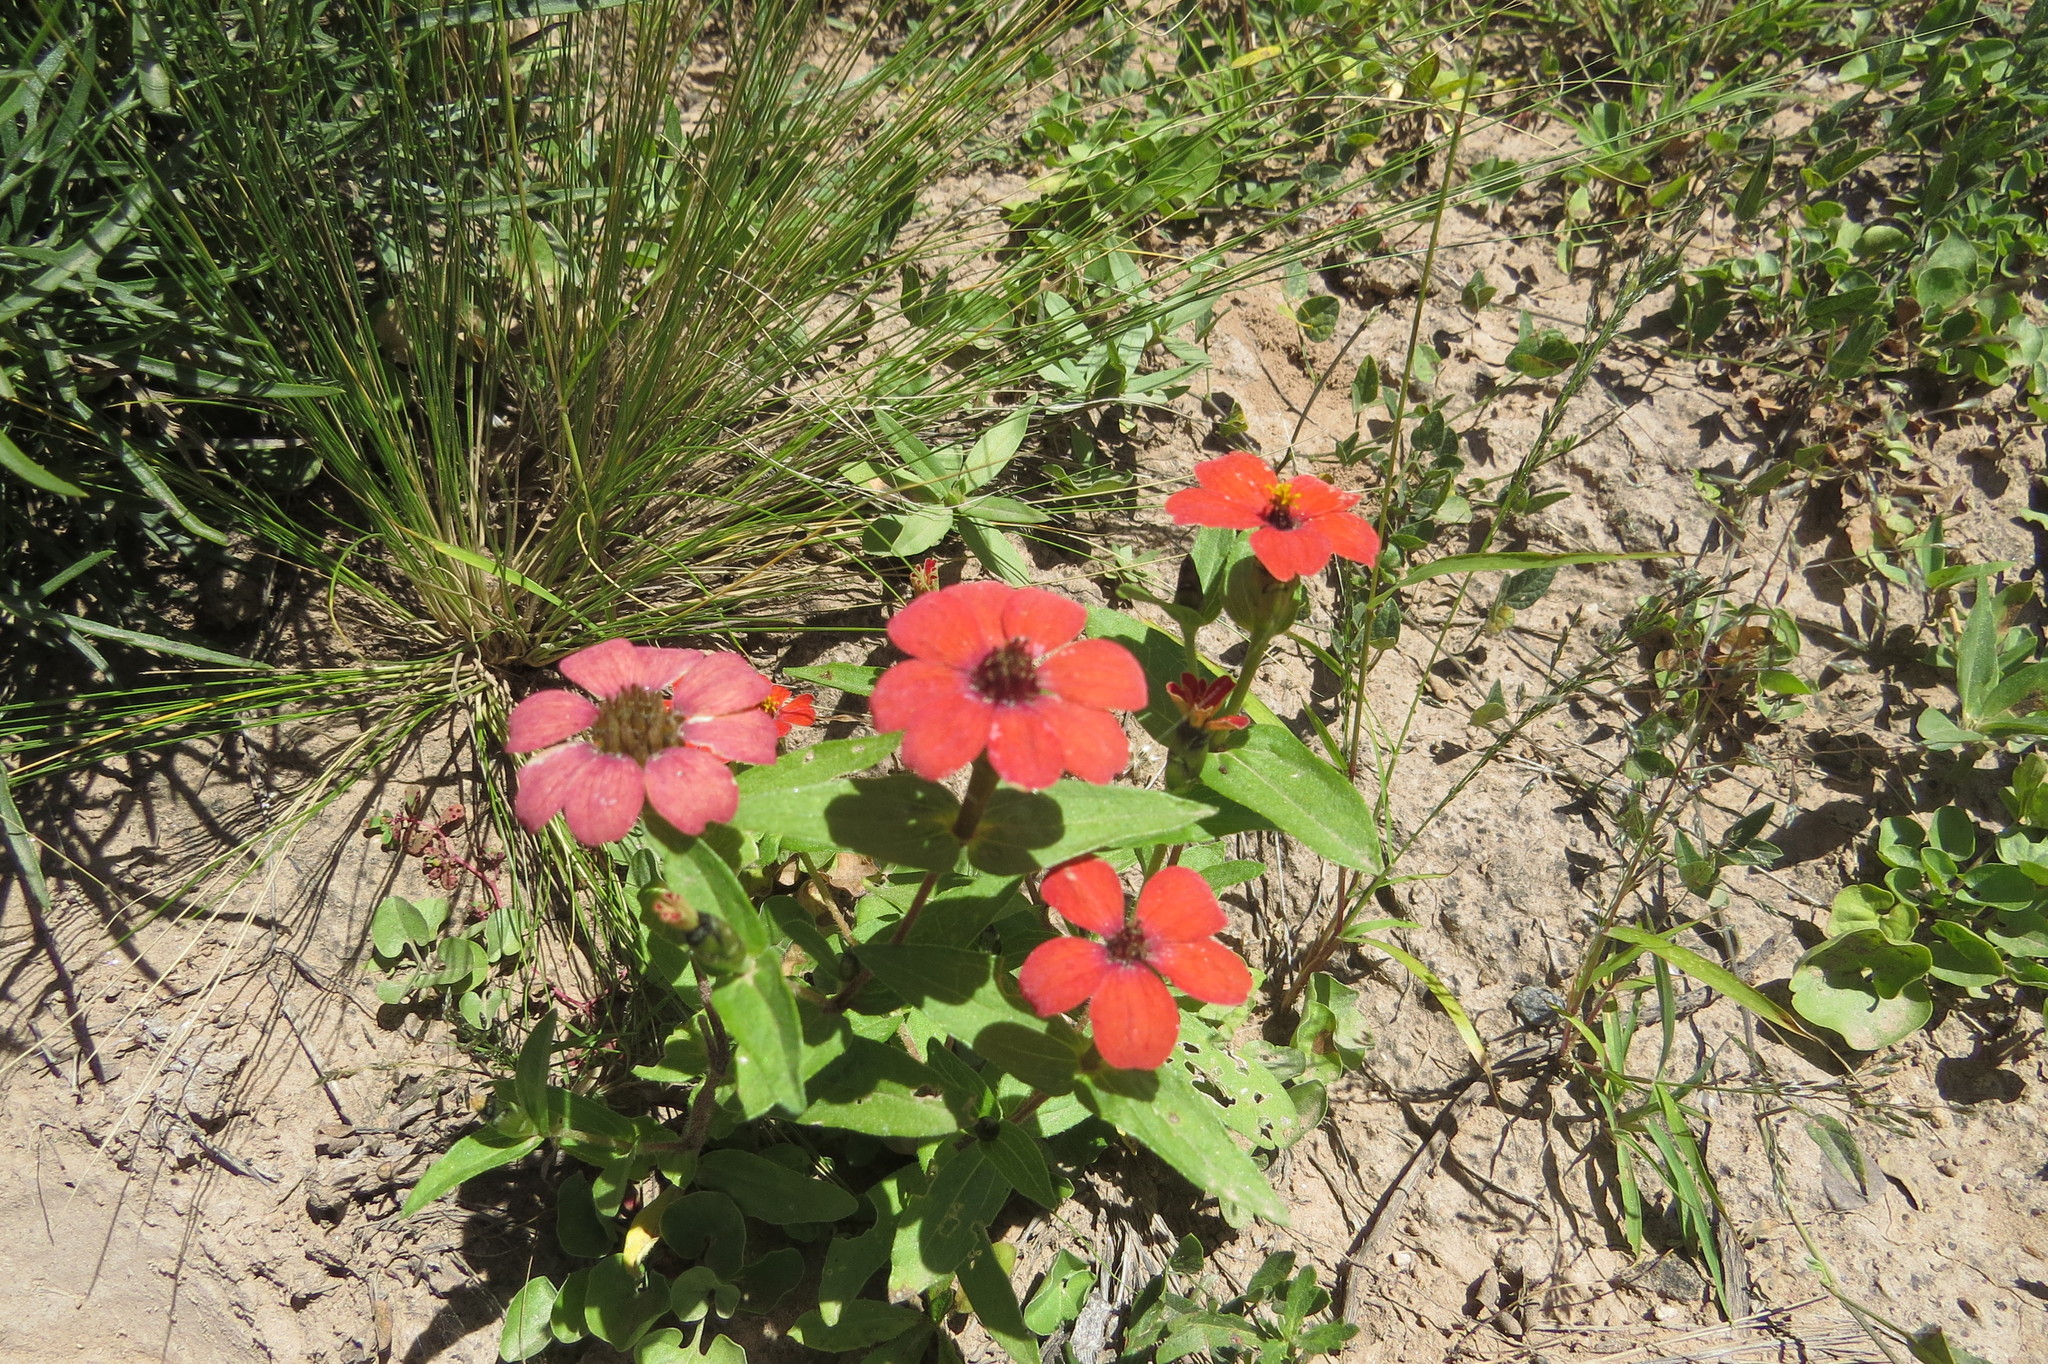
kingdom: Plantae
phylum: Tracheophyta
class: Magnoliopsida
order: Asterales
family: Asteraceae
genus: Zinnia
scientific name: Zinnia peruviana
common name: Peruvian zinnia
